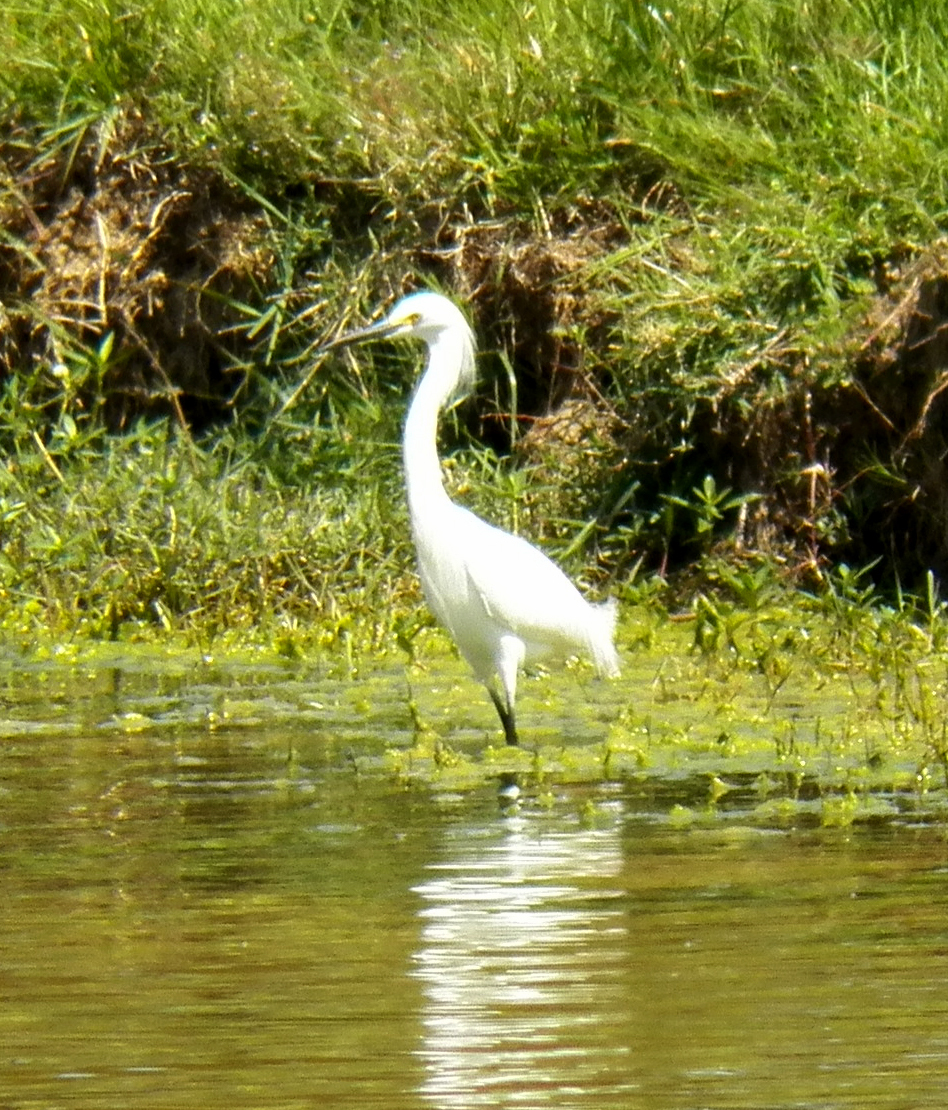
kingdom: Animalia
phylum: Chordata
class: Aves
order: Pelecaniformes
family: Ardeidae
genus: Egretta
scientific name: Egretta thula
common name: Snowy egret
